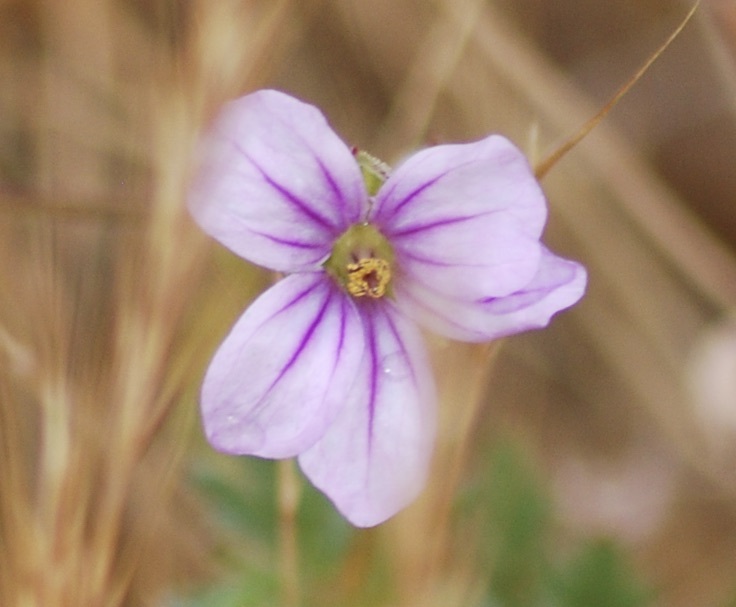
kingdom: Plantae
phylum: Tracheophyta
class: Magnoliopsida
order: Geraniales
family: Geraniaceae
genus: Erodium
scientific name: Erodium botrys
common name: Mediterranean stork's-bill
